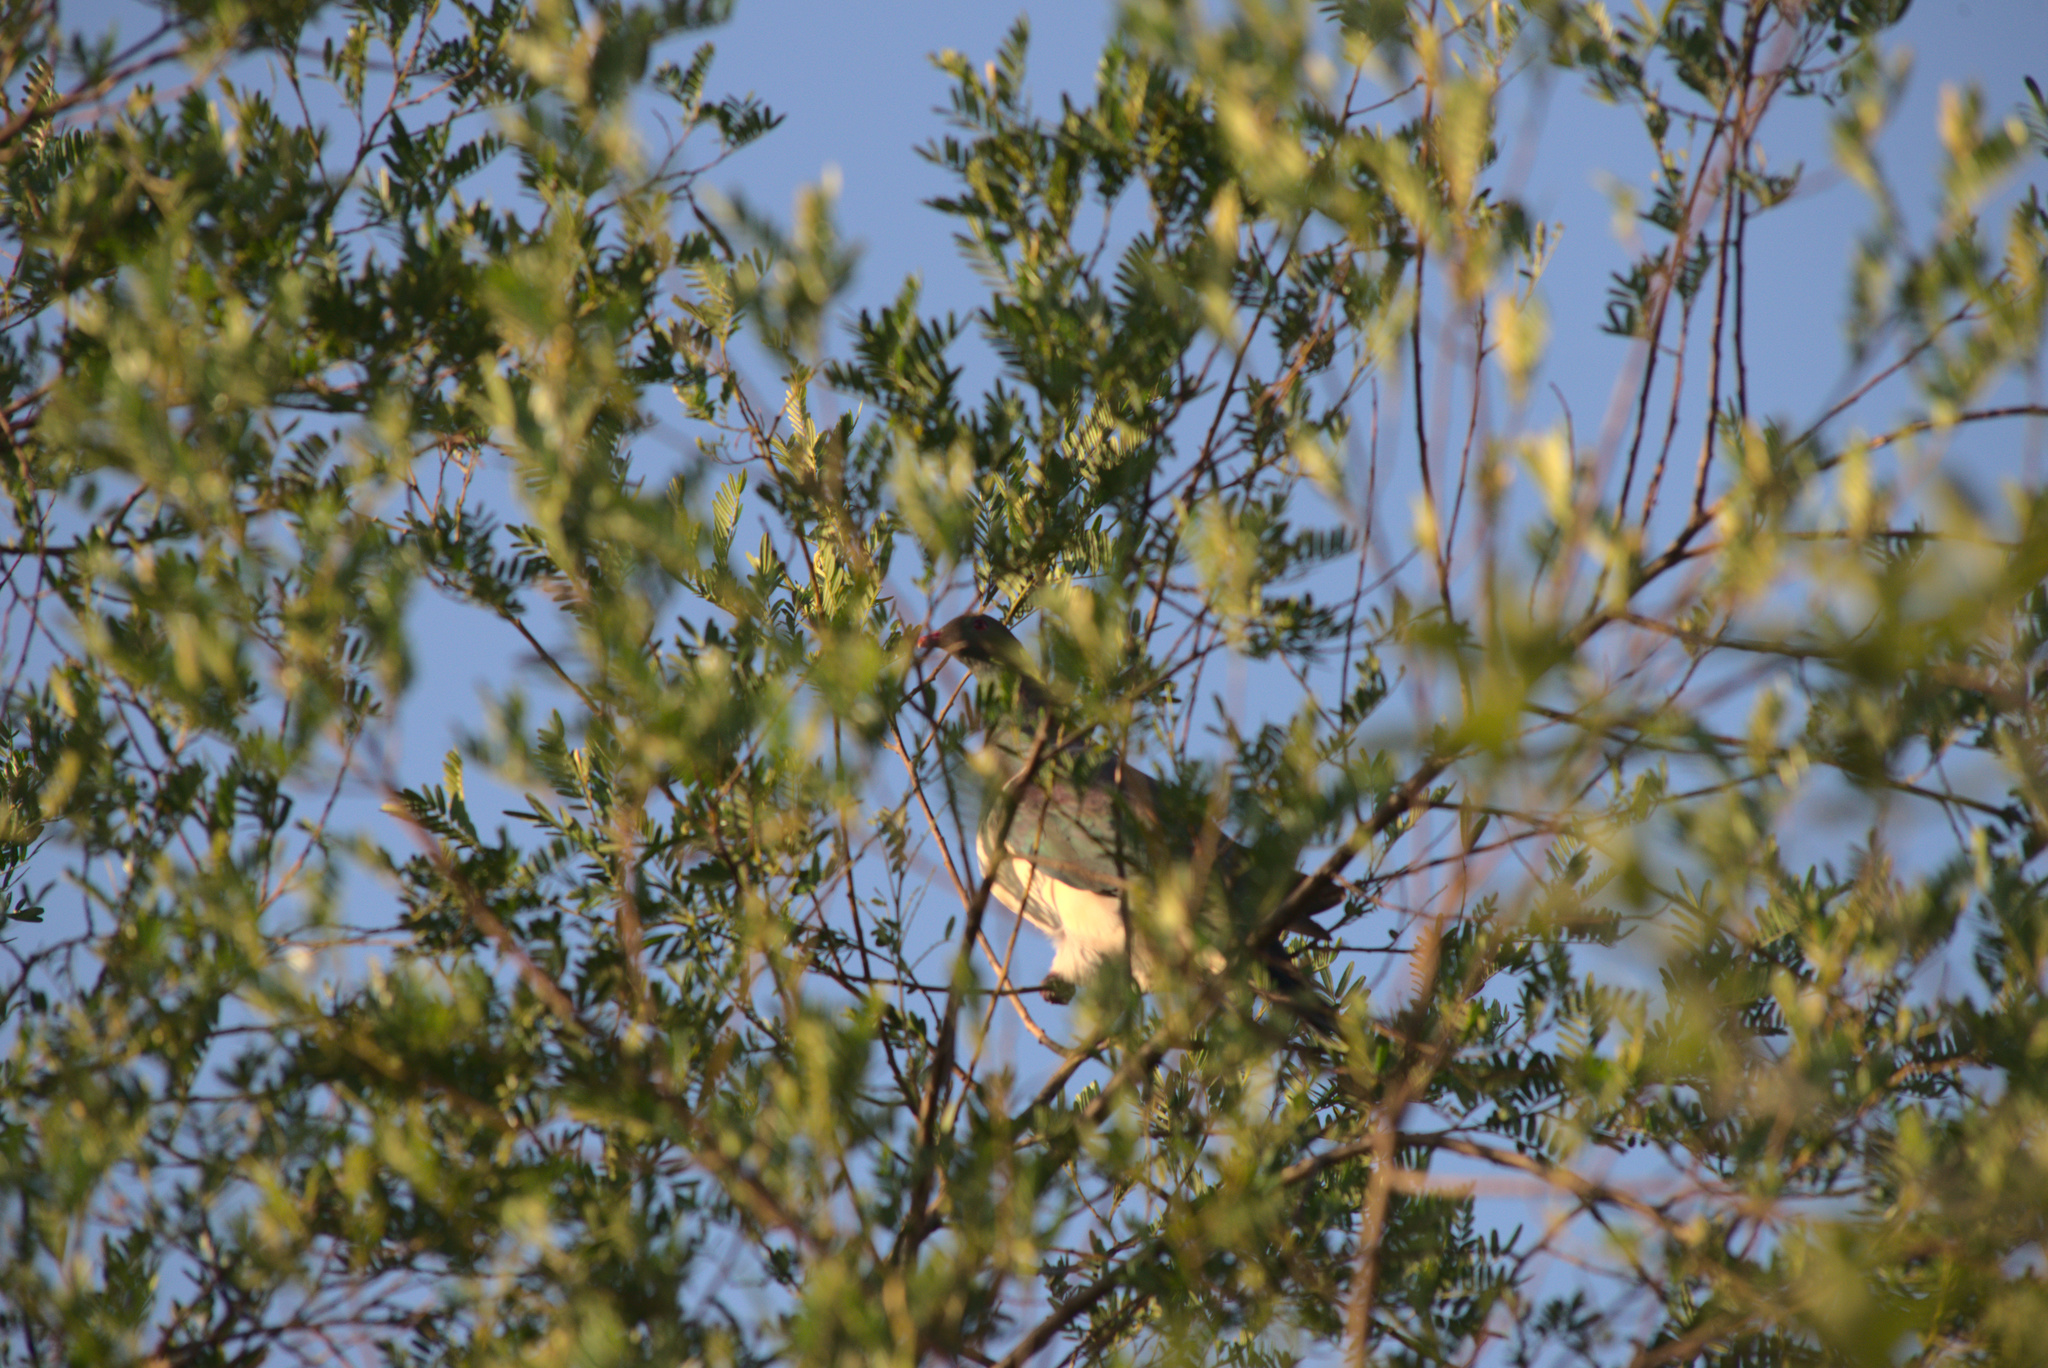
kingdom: Animalia
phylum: Chordata
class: Aves
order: Columbiformes
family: Columbidae
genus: Hemiphaga
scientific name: Hemiphaga novaeseelandiae
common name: New zealand pigeon
